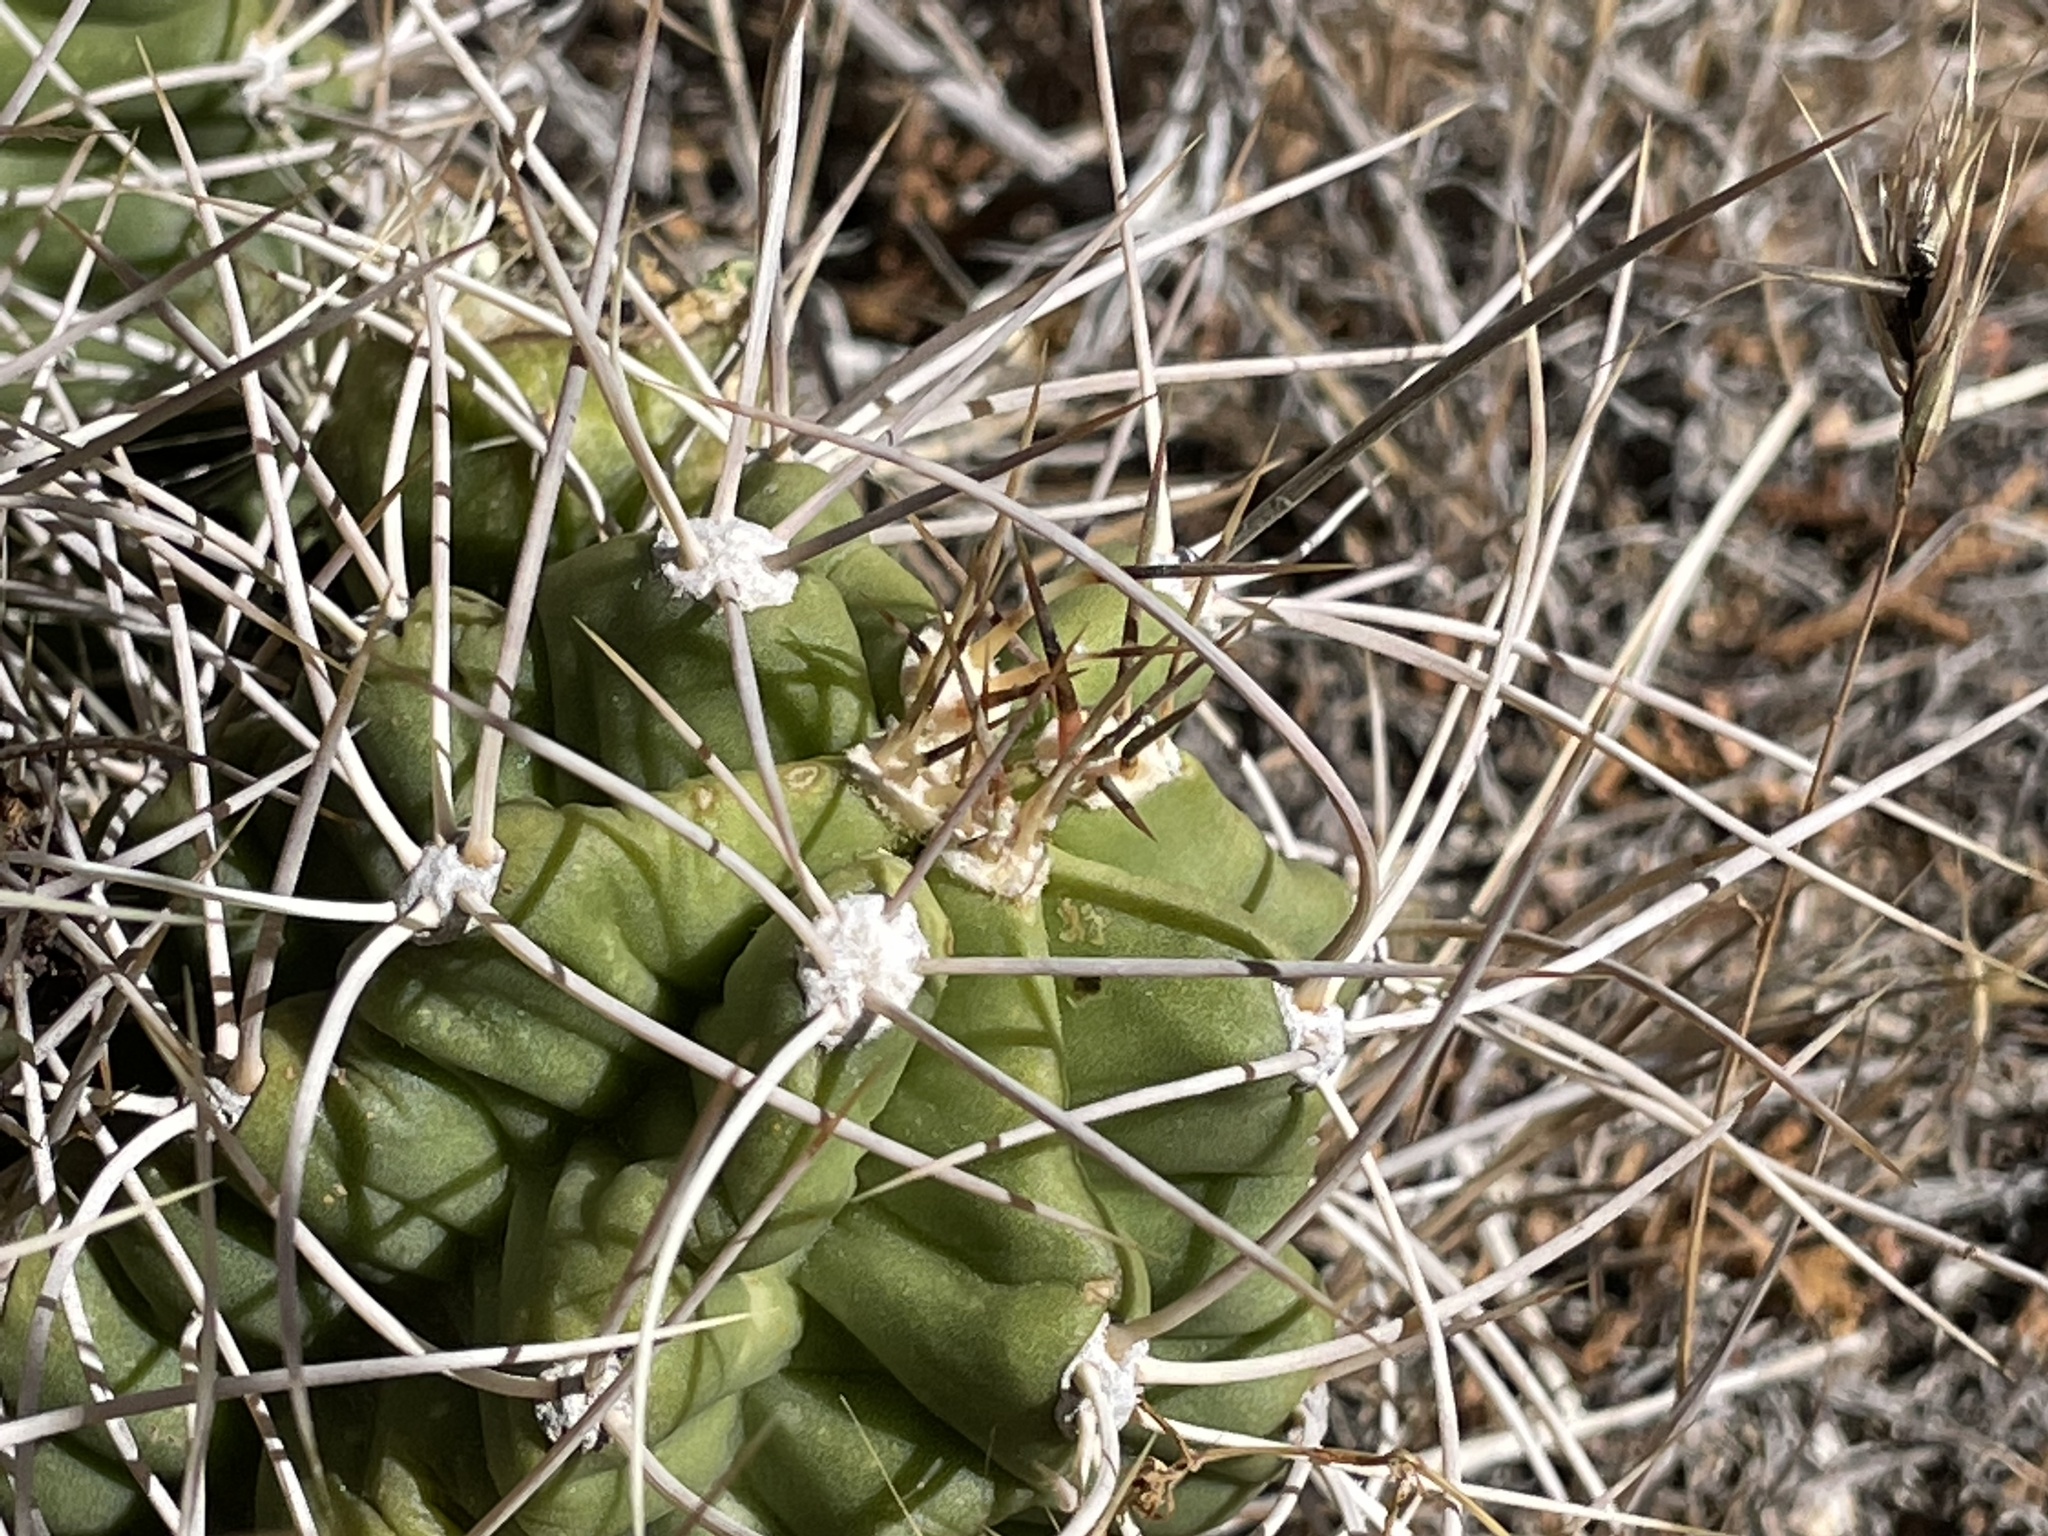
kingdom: Plantae
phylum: Tracheophyta
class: Magnoliopsida
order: Caryophyllales
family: Cactaceae
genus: Echinocereus
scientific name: Echinocereus triglochidiatus
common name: Claretcup hedgehog
